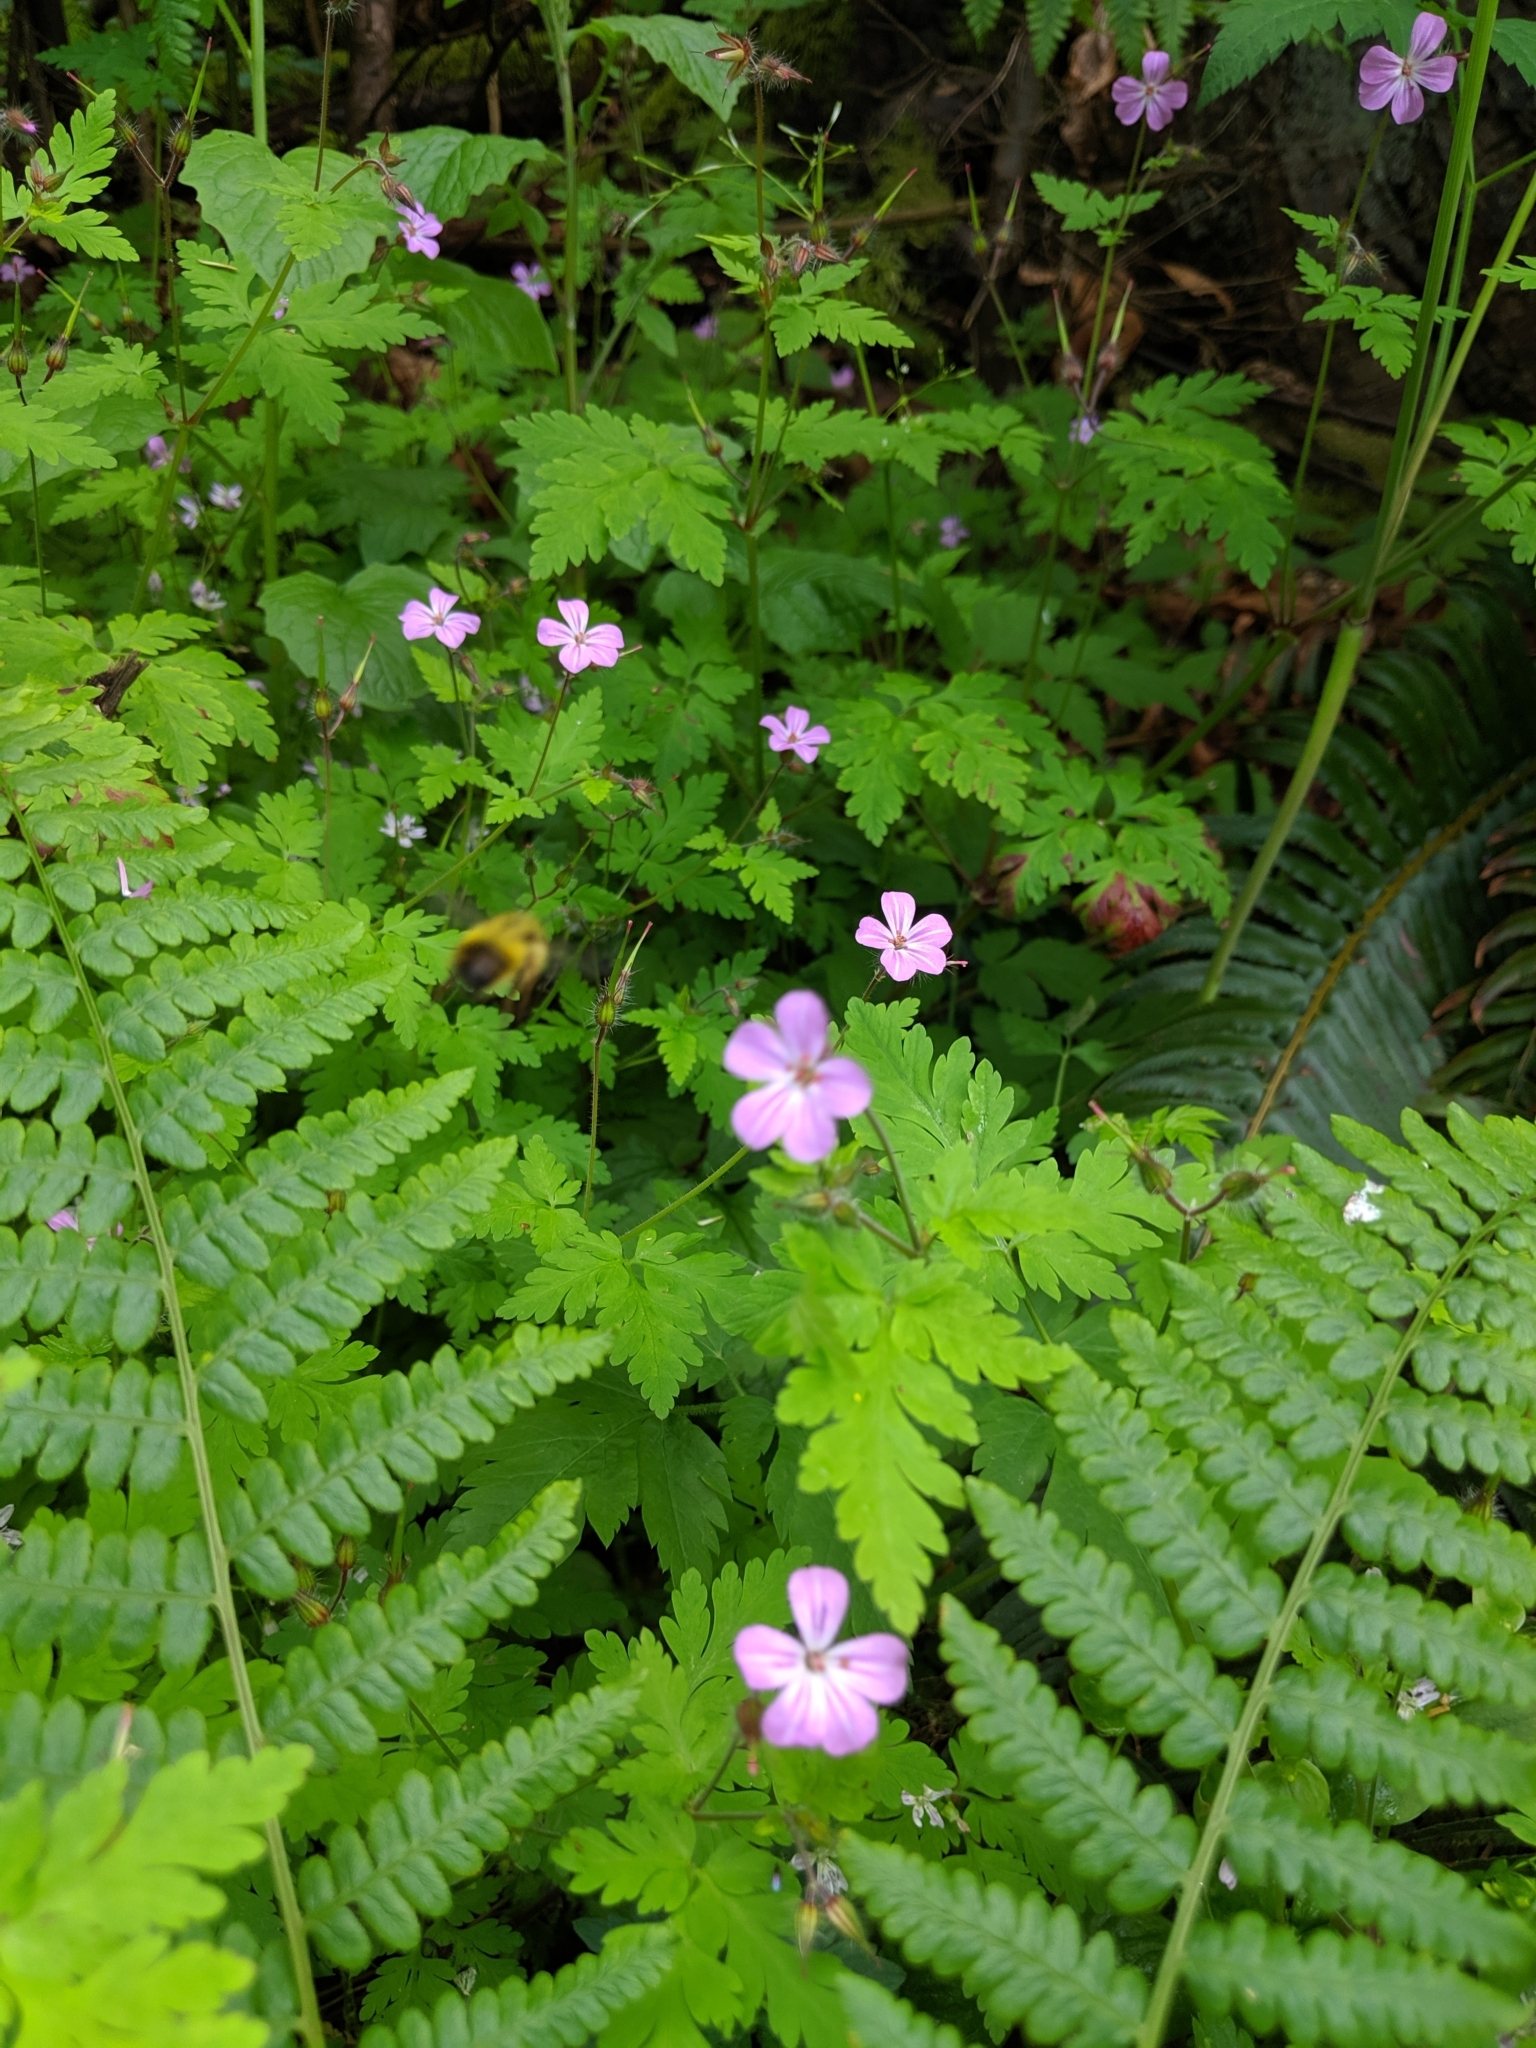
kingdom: Plantae
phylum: Tracheophyta
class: Magnoliopsida
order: Geraniales
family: Geraniaceae
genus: Geranium
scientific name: Geranium robertianum
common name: Herb-robert
